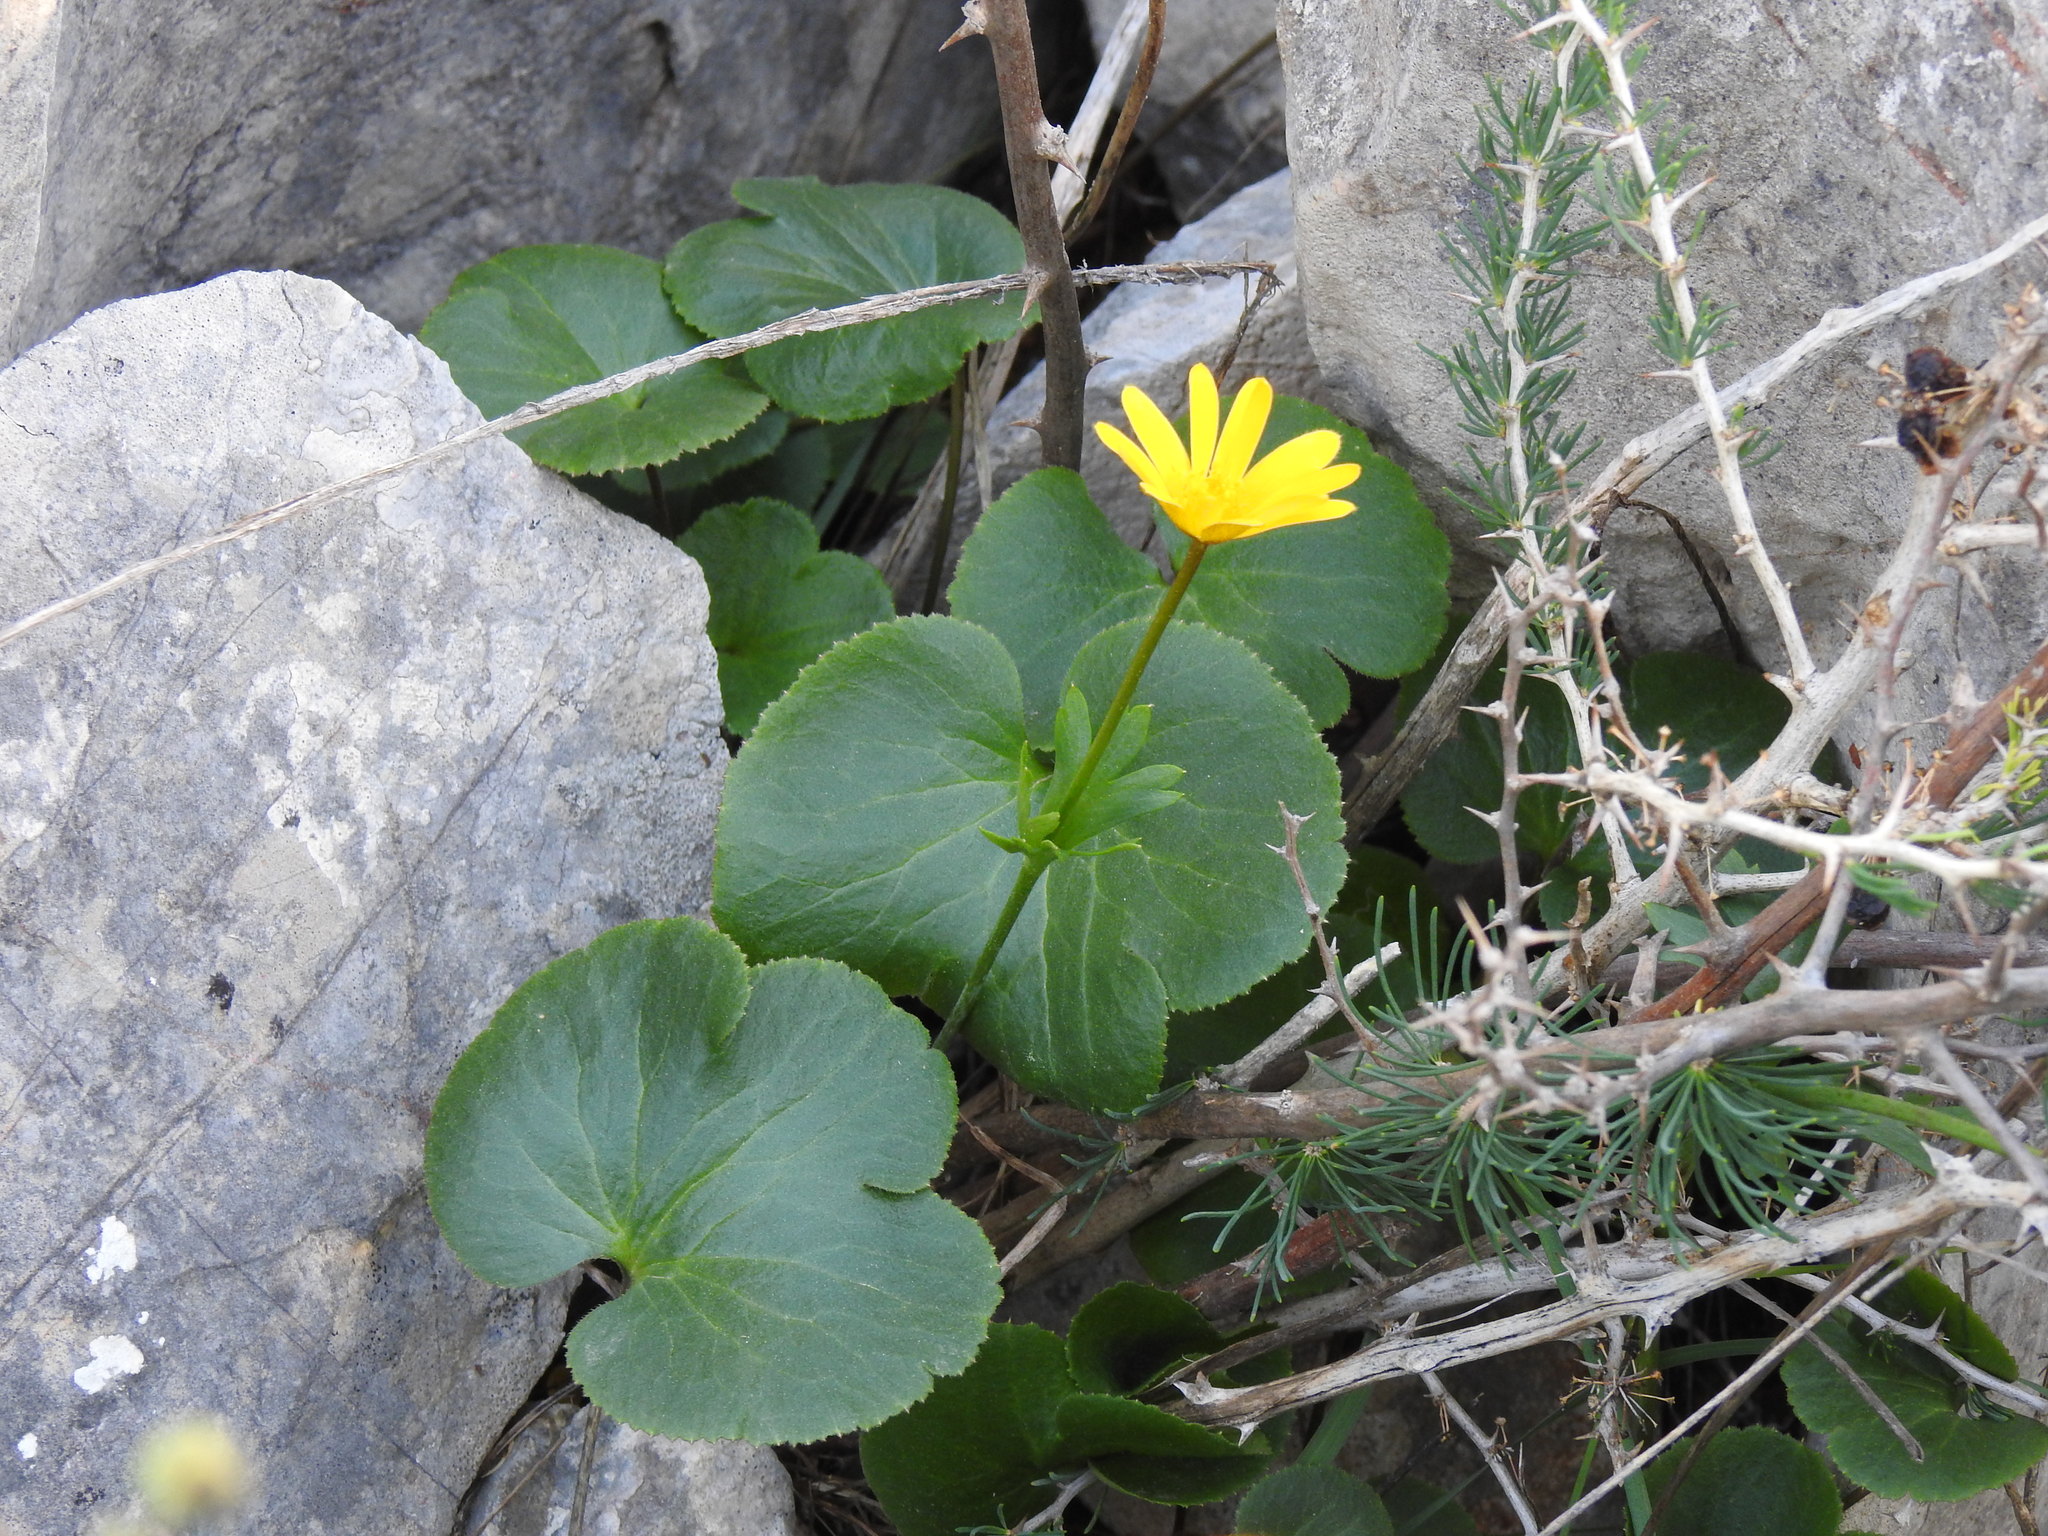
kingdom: Plantae
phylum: Tracheophyta
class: Magnoliopsida
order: Ranunculales
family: Ranunculaceae
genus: Anemone
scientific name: Anemone palmata
